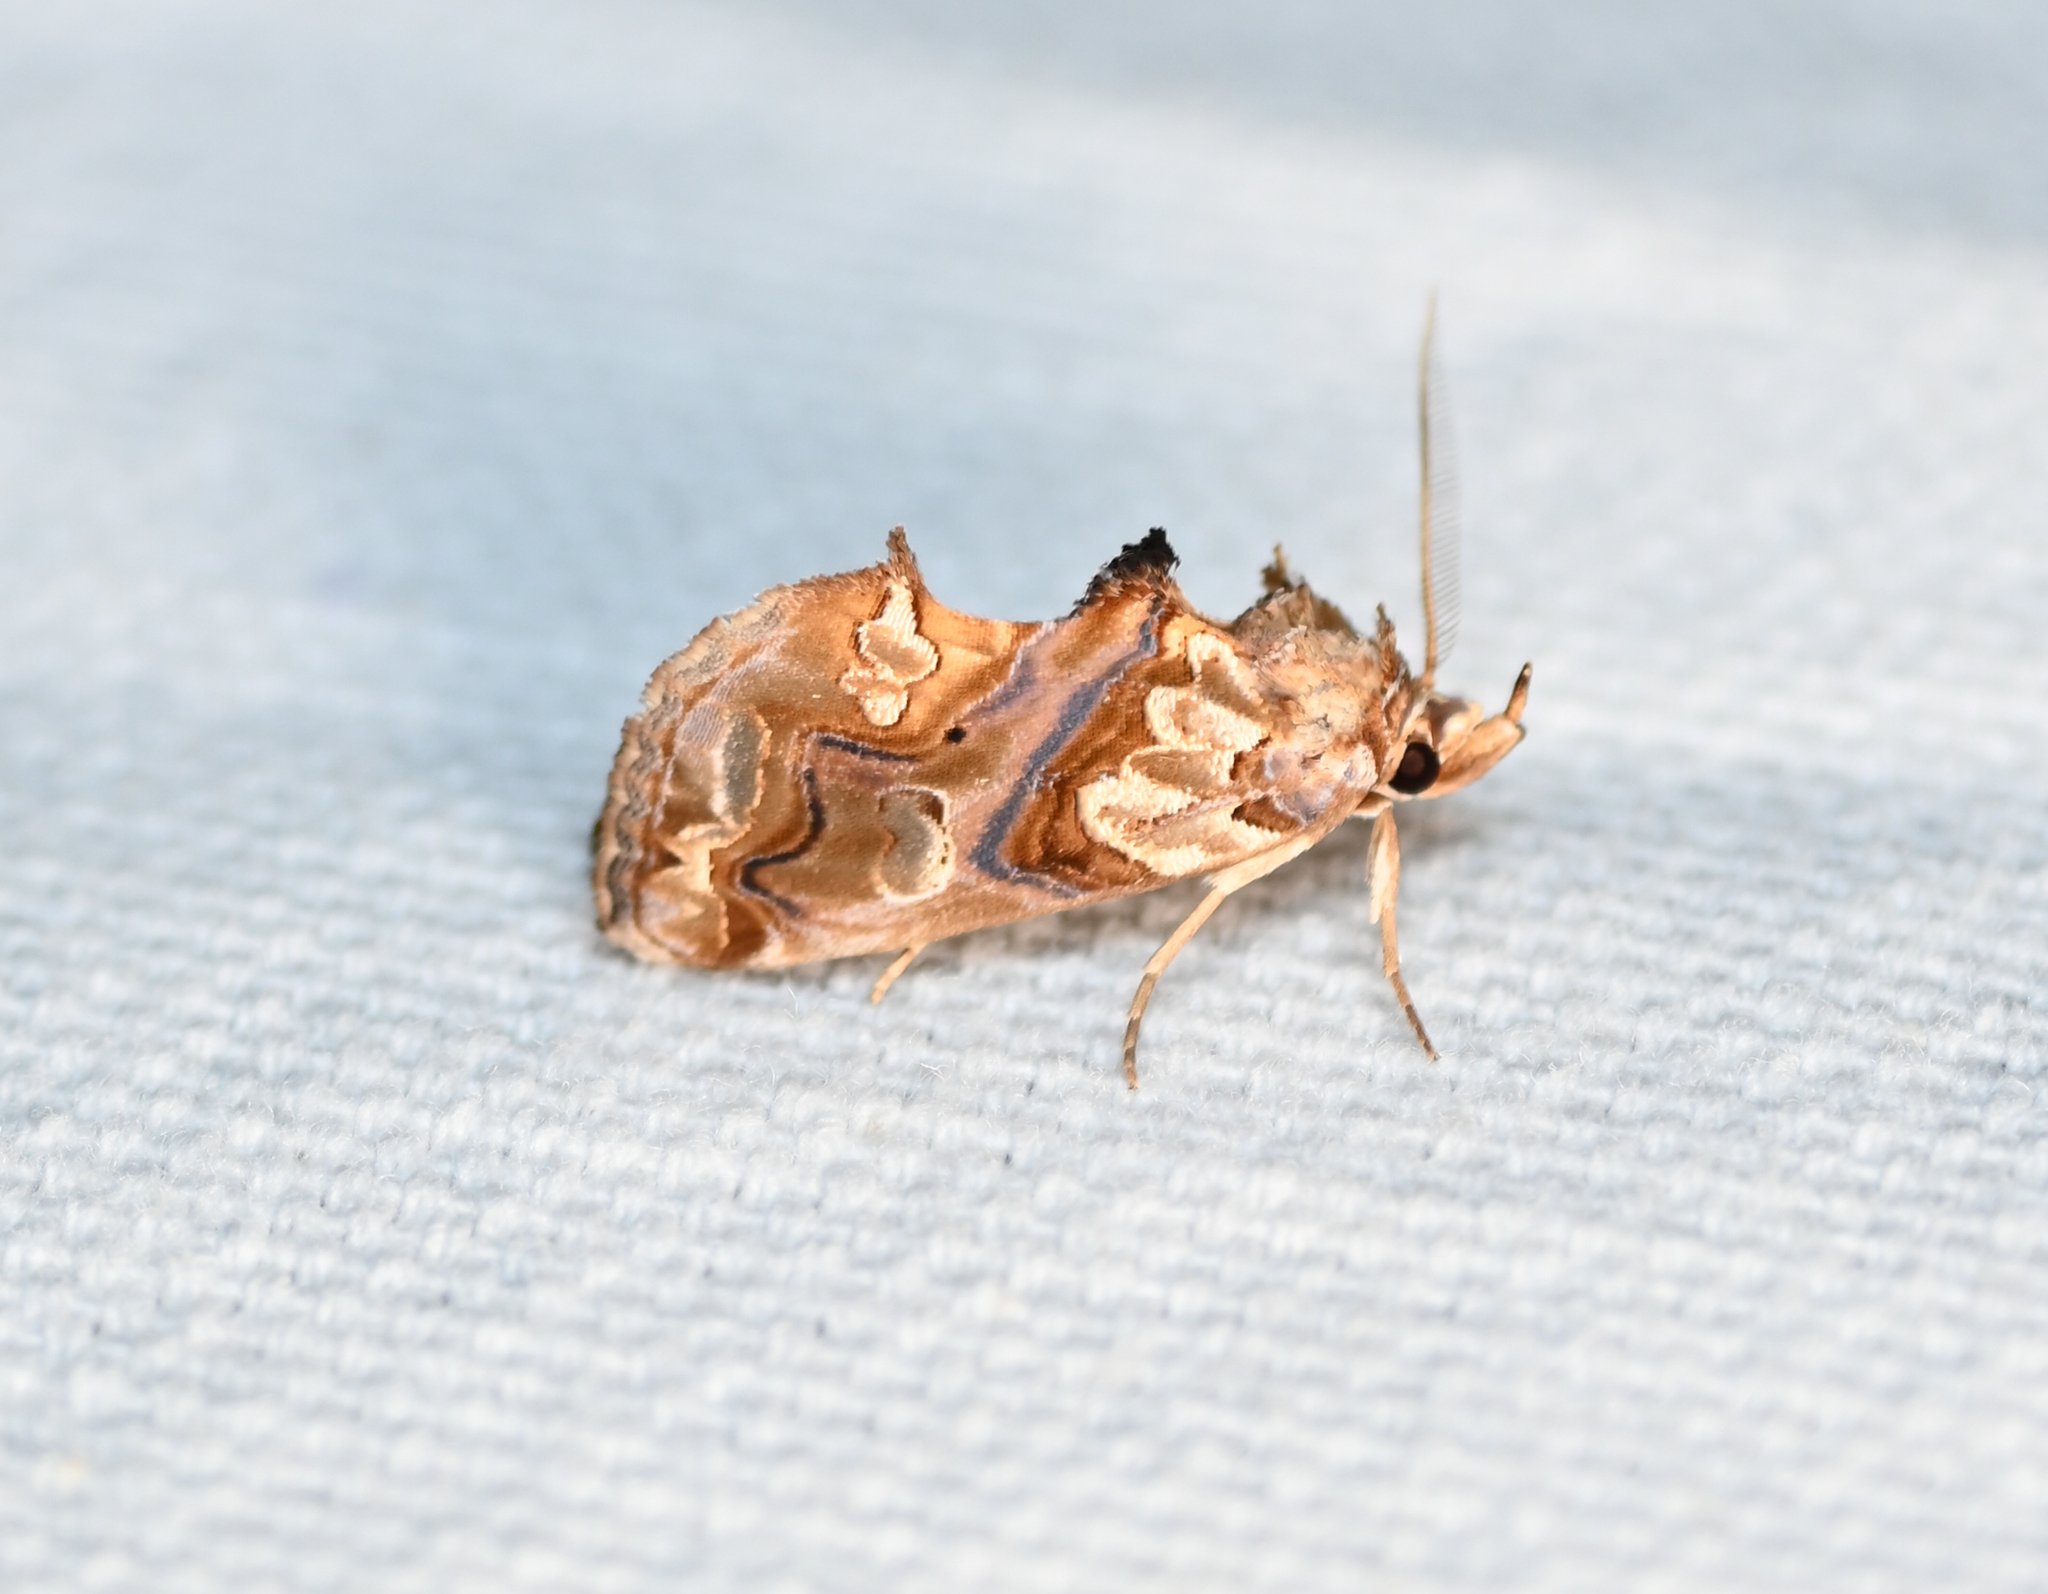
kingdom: Animalia
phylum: Arthropoda
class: Insecta
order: Lepidoptera
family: Erebidae
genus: Plusiodonta
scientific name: Plusiodonta compressipalpis
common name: Moonseed moth
